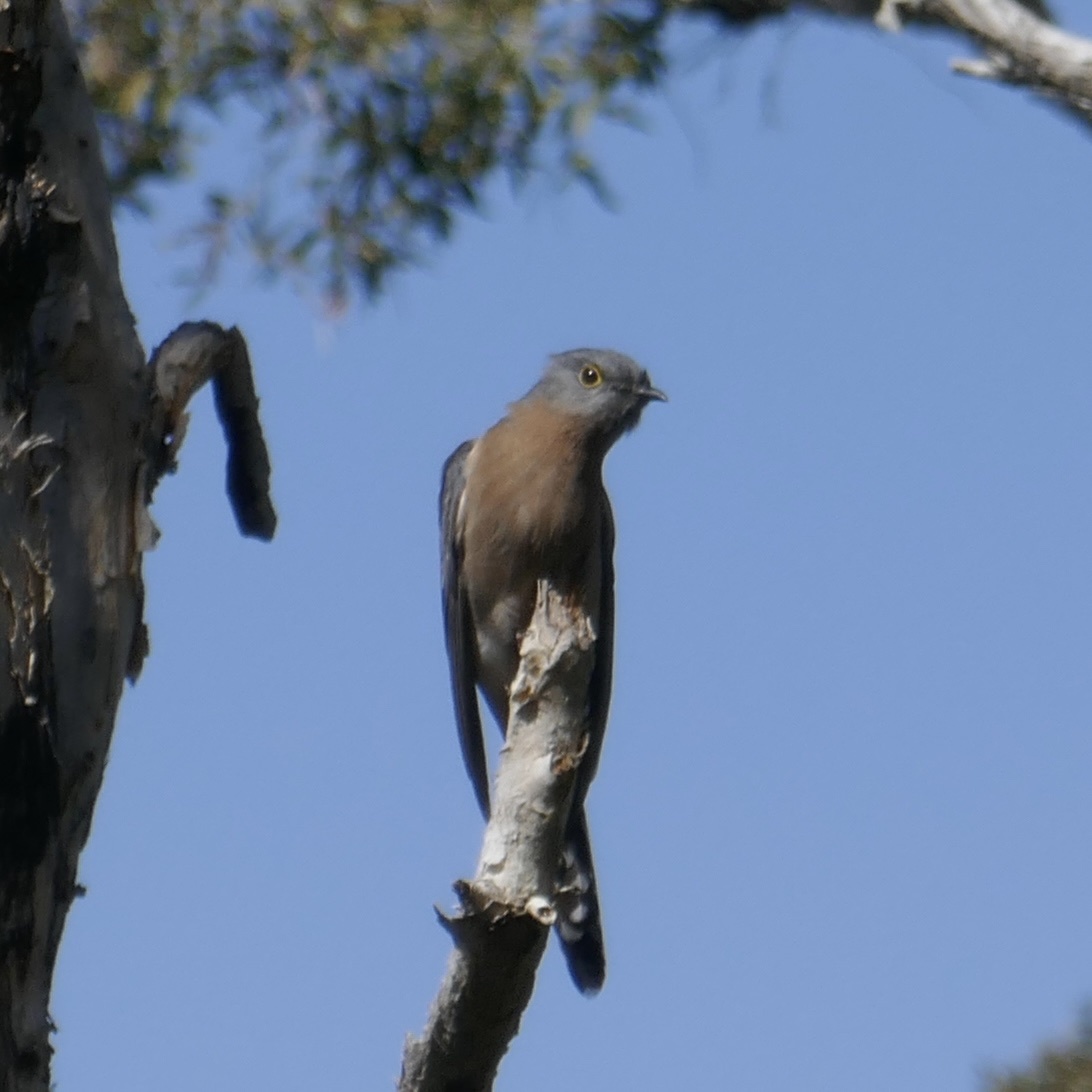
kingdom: Animalia
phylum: Chordata
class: Aves
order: Cuculiformes
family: Cuculidae
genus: Cacomantis
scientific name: Cacomantis flabelliformis
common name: Fan-tailed cuckoo
